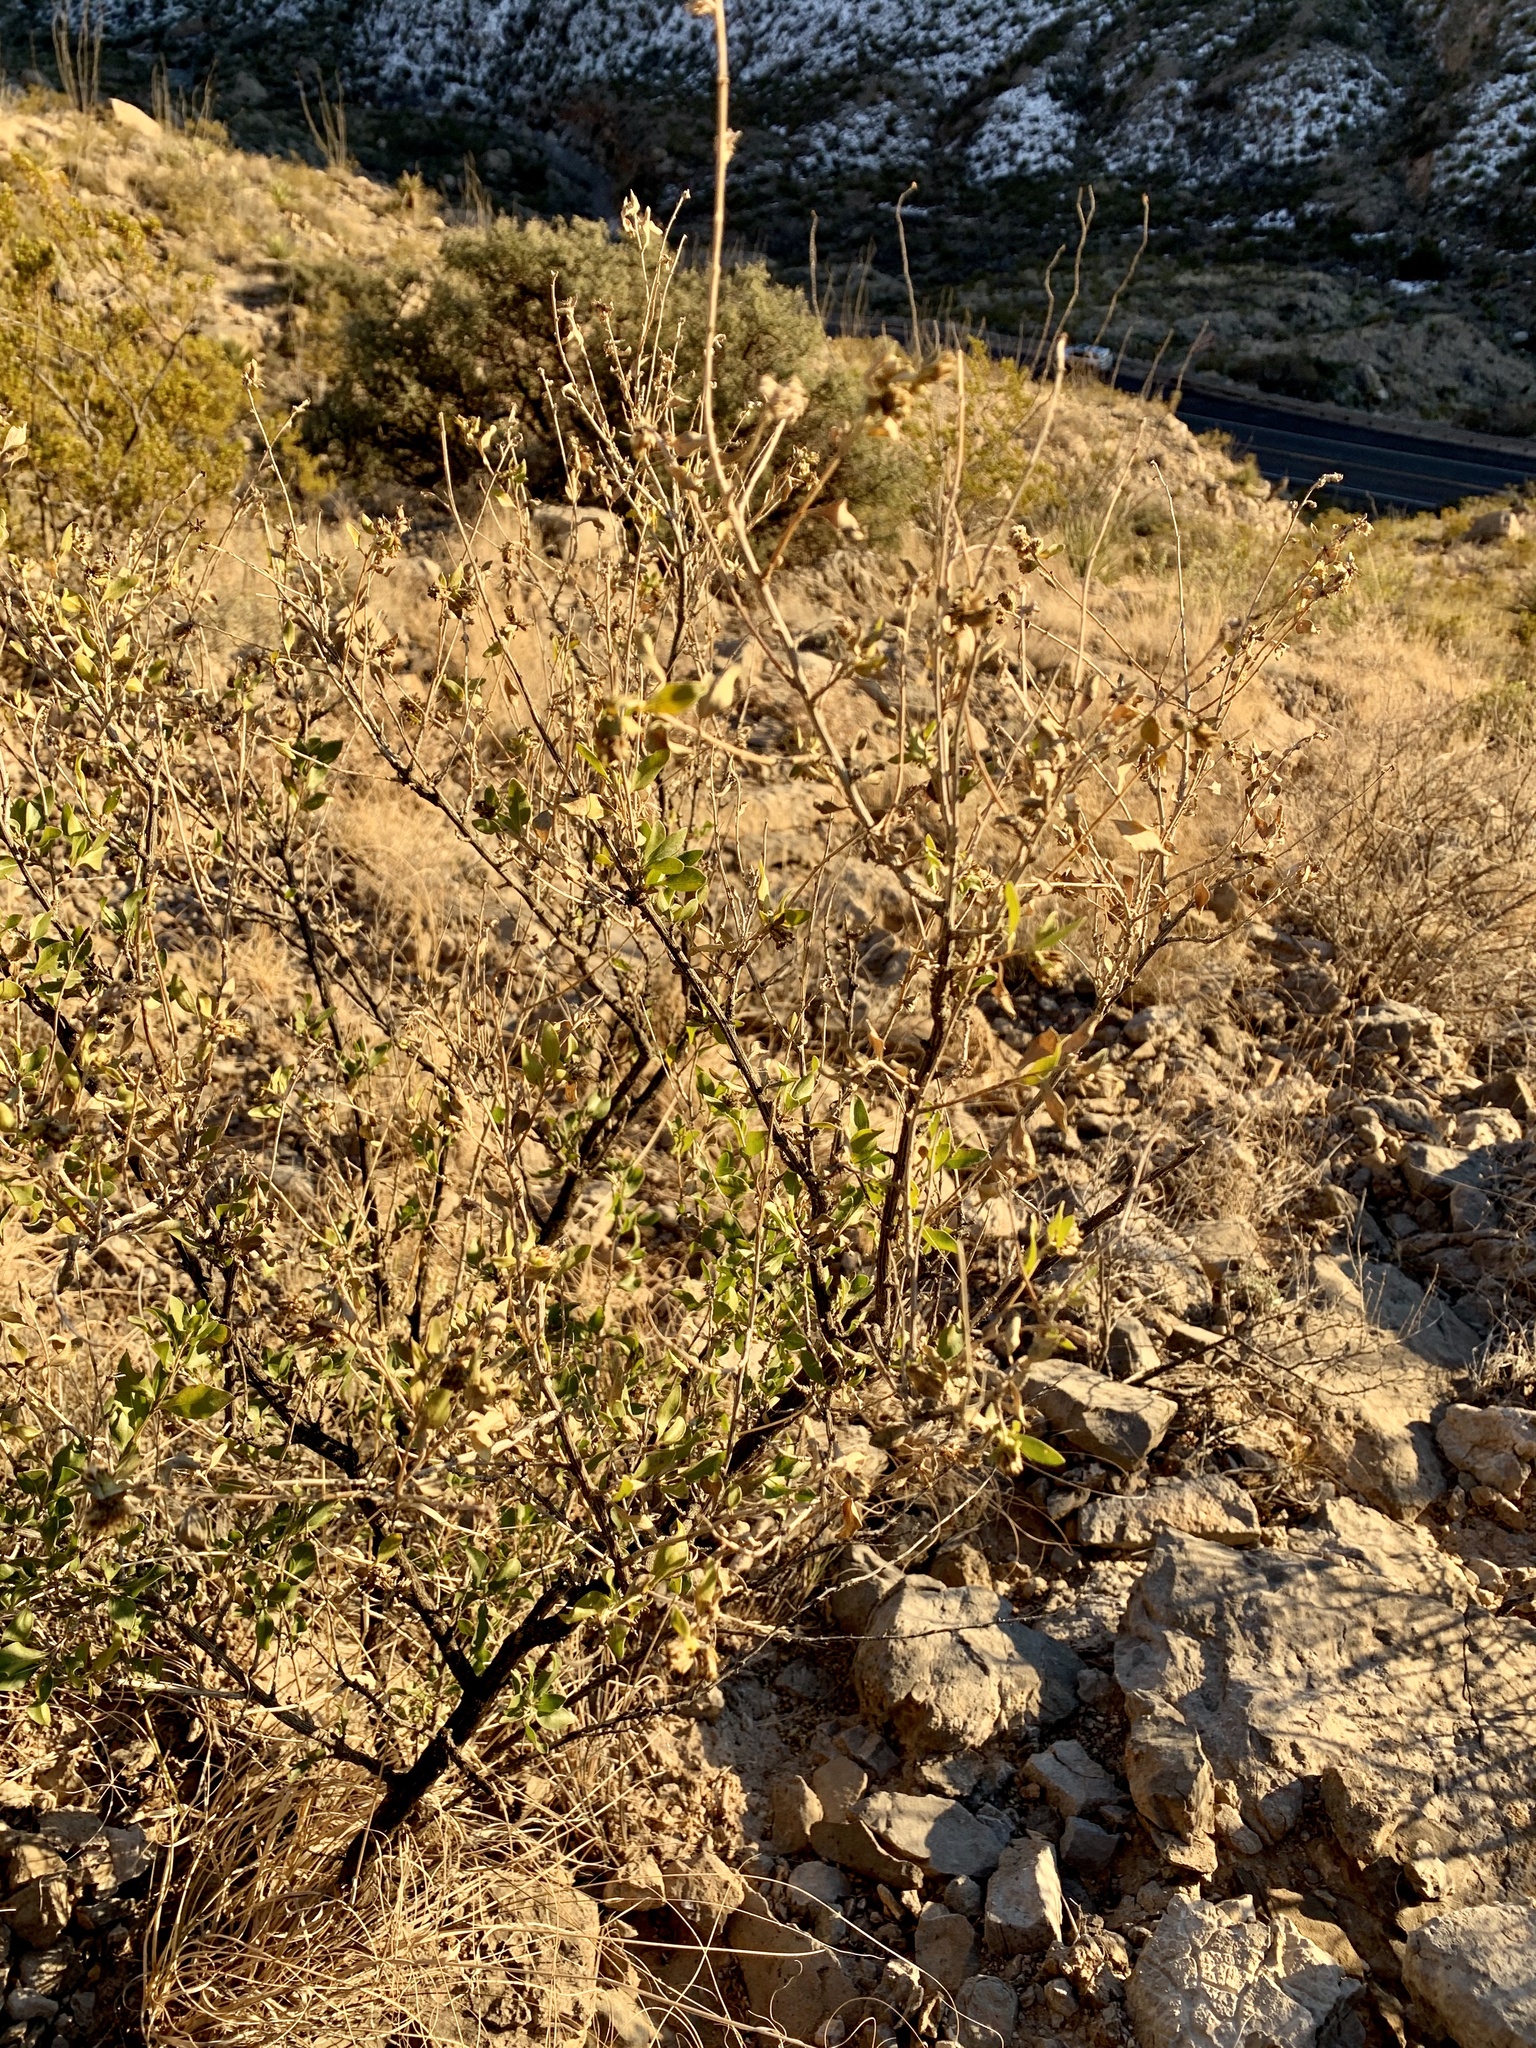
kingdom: Plantae
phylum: Tracheophyta
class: Magnoliopsida
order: Asterales
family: Asteraceae
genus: Flourensia
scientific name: Flourensia cernua
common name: Varnishbush
